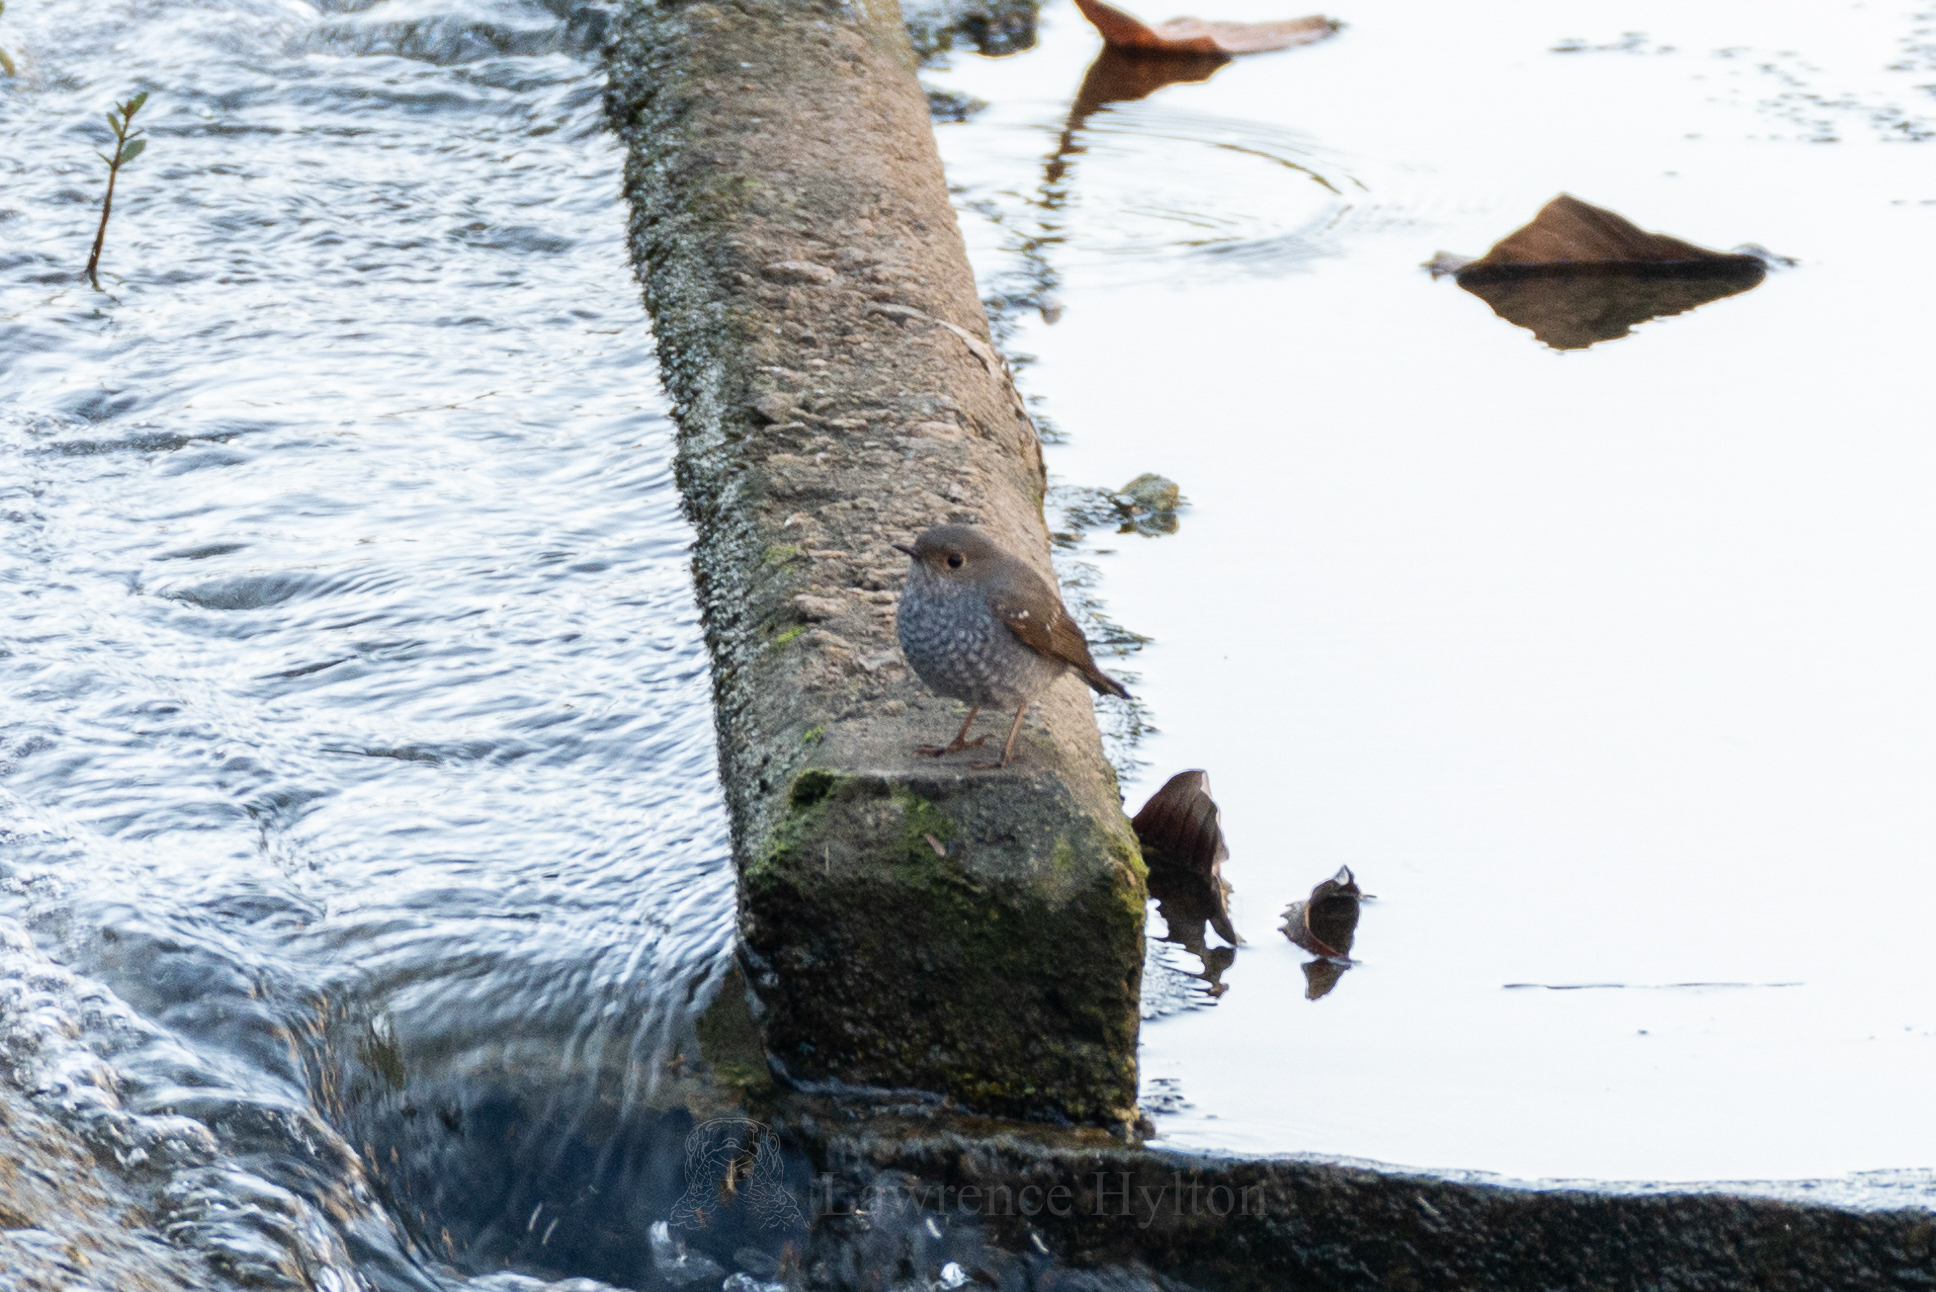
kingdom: Animalia
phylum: Chordata
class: Aves
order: Passeriformes
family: Muscicapidae
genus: Phoenicurus
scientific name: Phoenicurus fuliginosus
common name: Plumbeous water redstart
